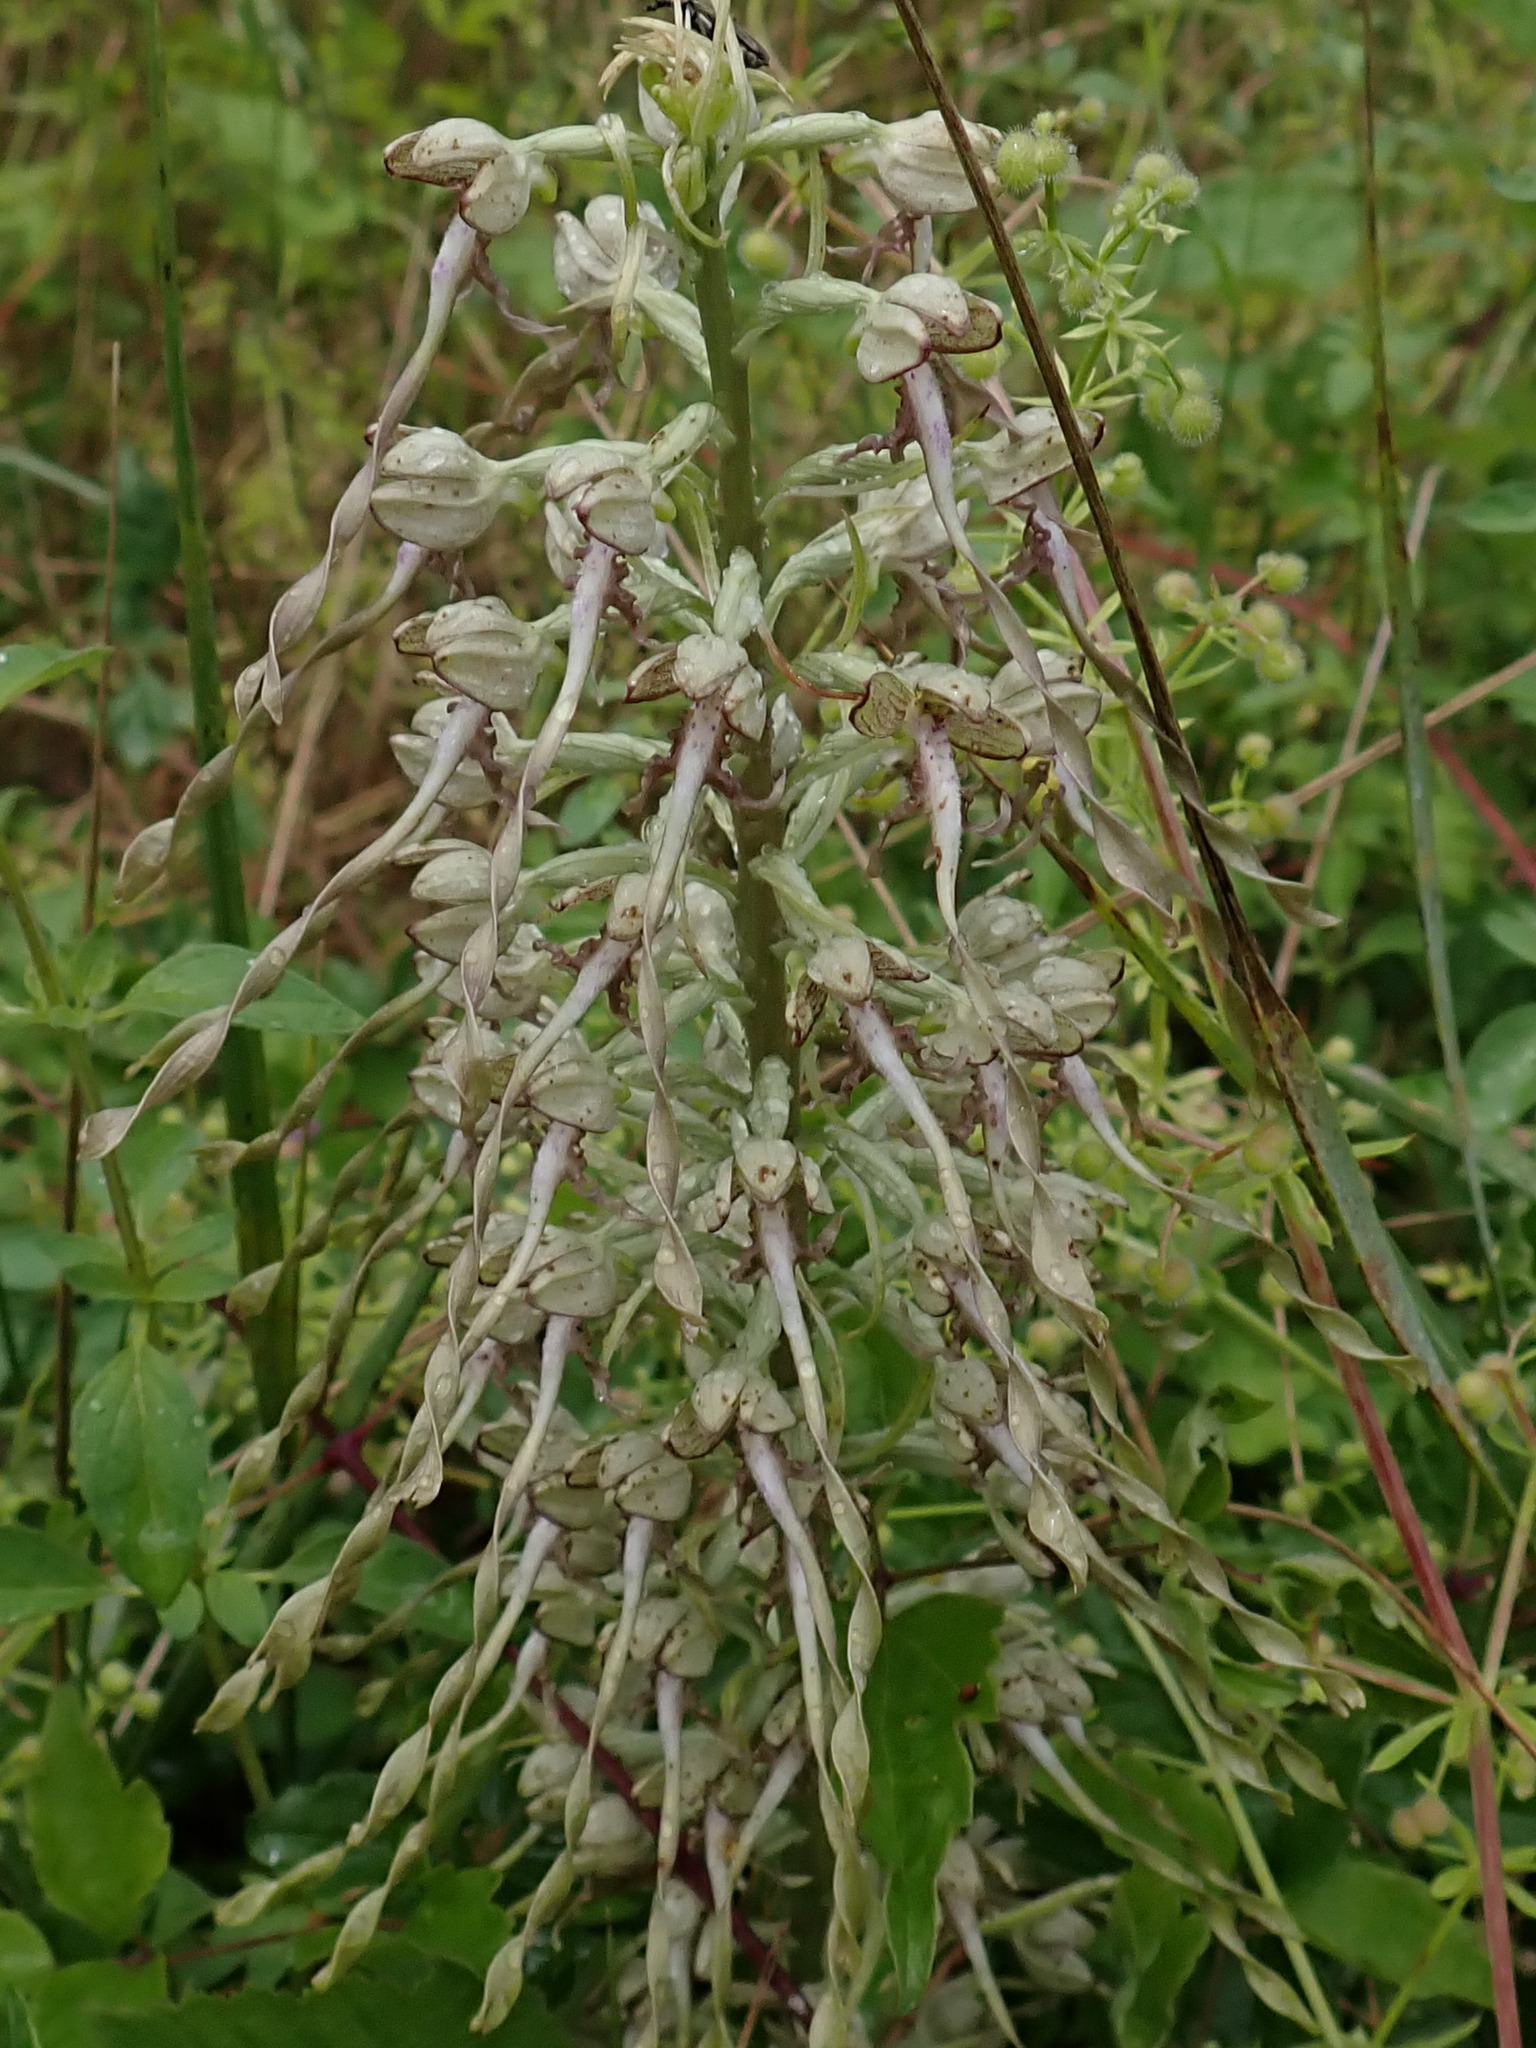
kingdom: Plantae
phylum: Tracheophyta
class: Liliopsida
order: Asparagales
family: Orchidaceae
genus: Himantoglossum
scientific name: Himantoglossum hircinum
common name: Lizard orchid
